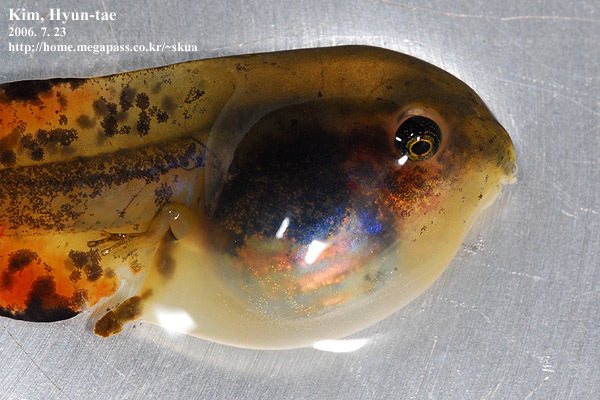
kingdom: Animalia
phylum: Chordata
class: Amphibia
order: Anura
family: Hylidae
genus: Dryophytes
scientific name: Dryophytes japonicus
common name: Japanese treefrog
